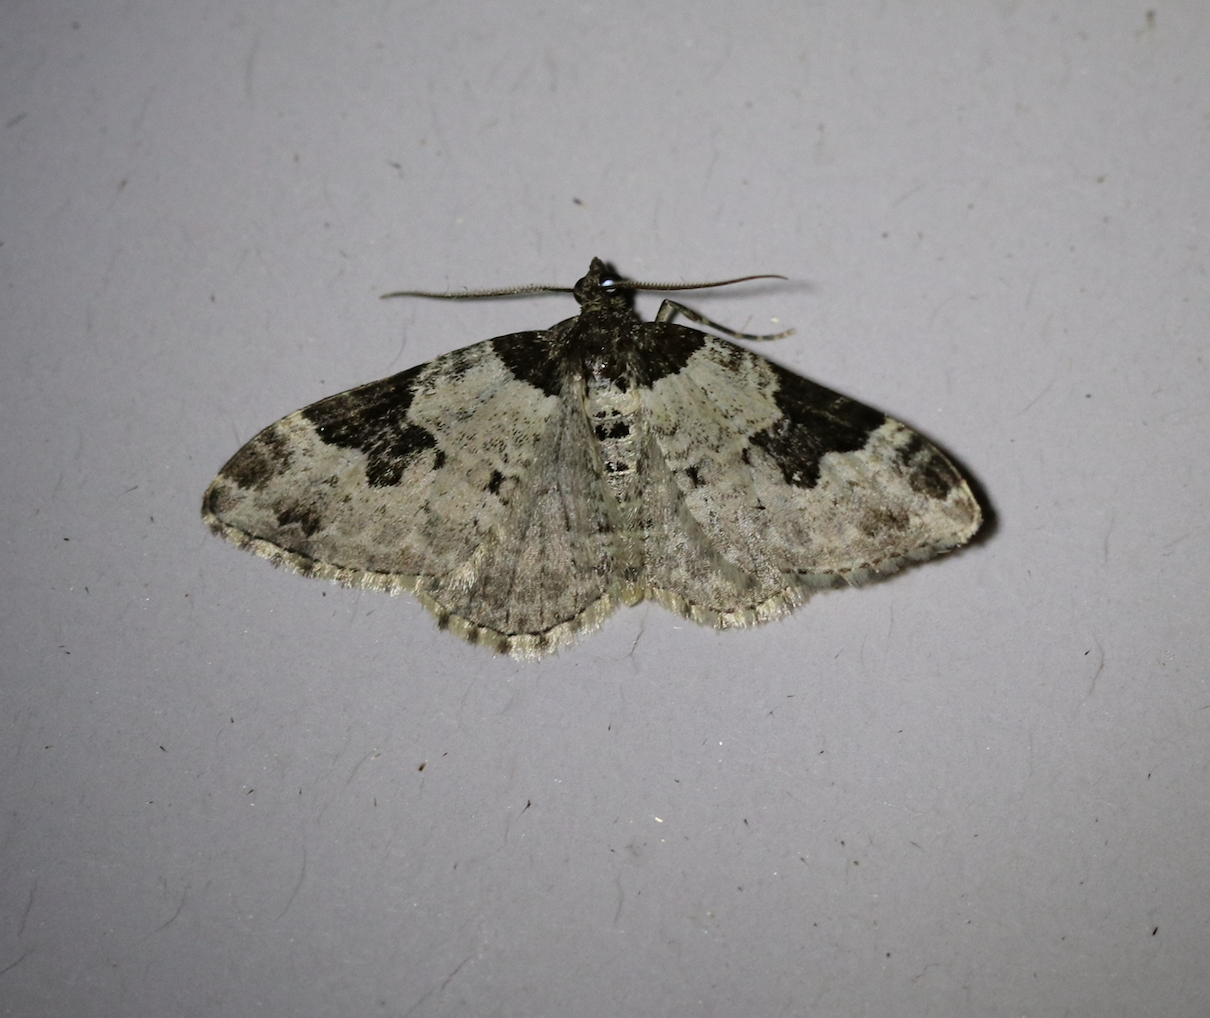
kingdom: Animalia
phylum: Arthropoda
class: Insecta
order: Lepidoptera
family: Geometridae
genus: Xanthorhoe
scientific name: Xanthorhoe fluctuata
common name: Garden carpet
